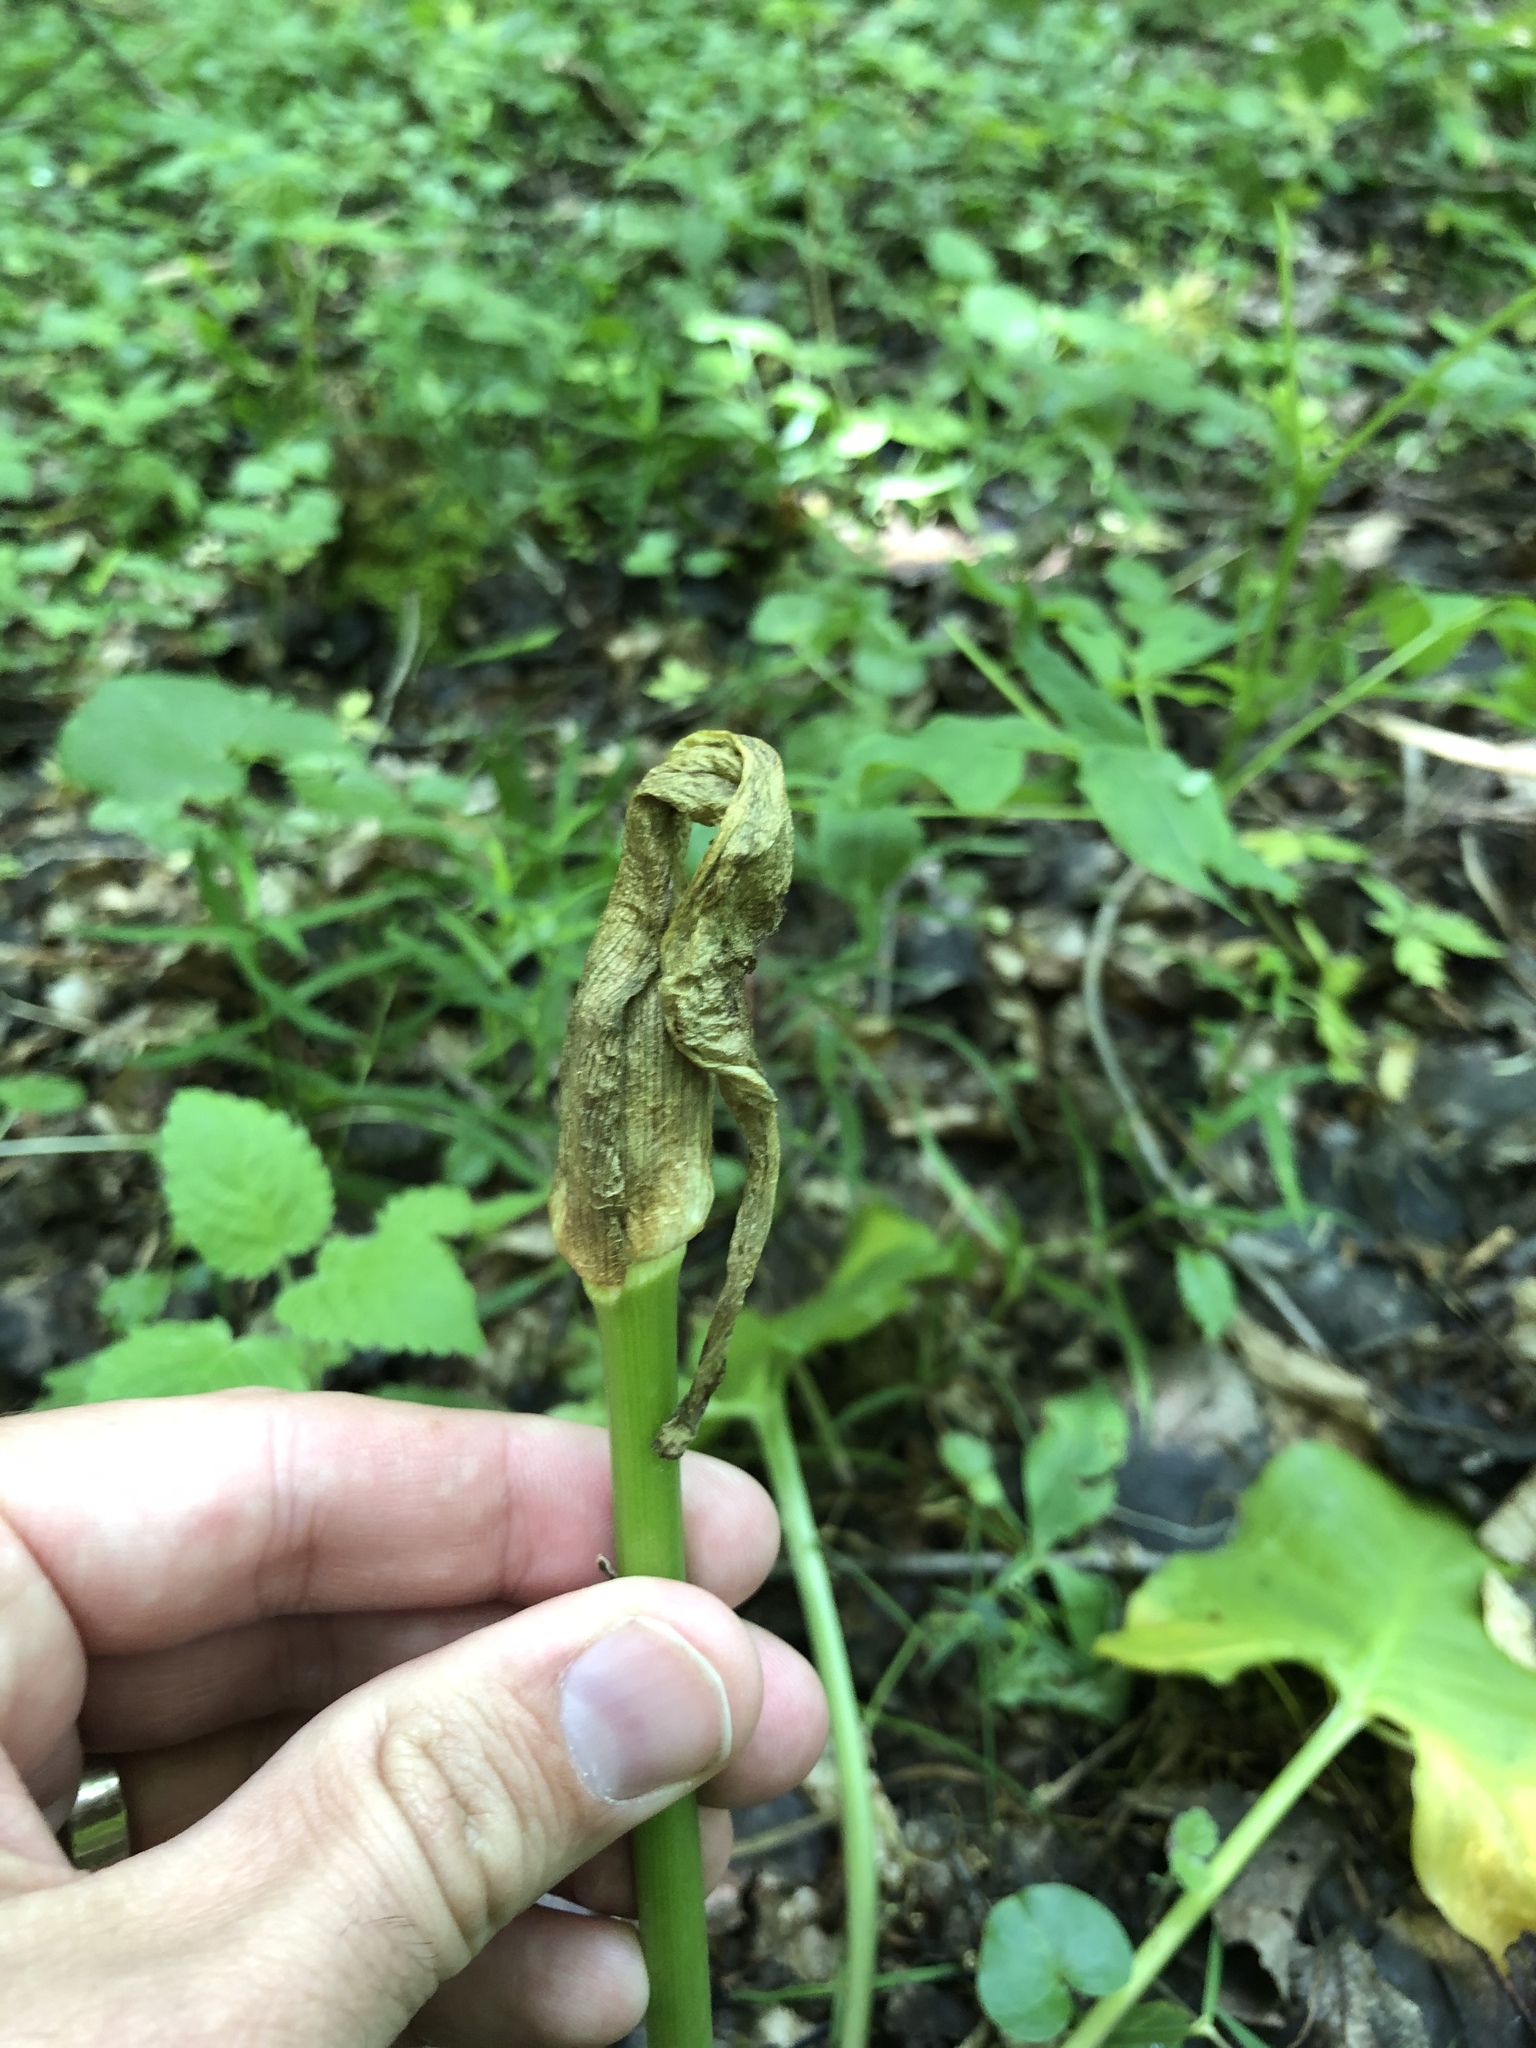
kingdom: Plantae
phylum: Tracheophyta
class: Liliopsida
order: Alismatales
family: Araceae
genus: Arum
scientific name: Arum maculatum
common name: Lords-and-ladies
